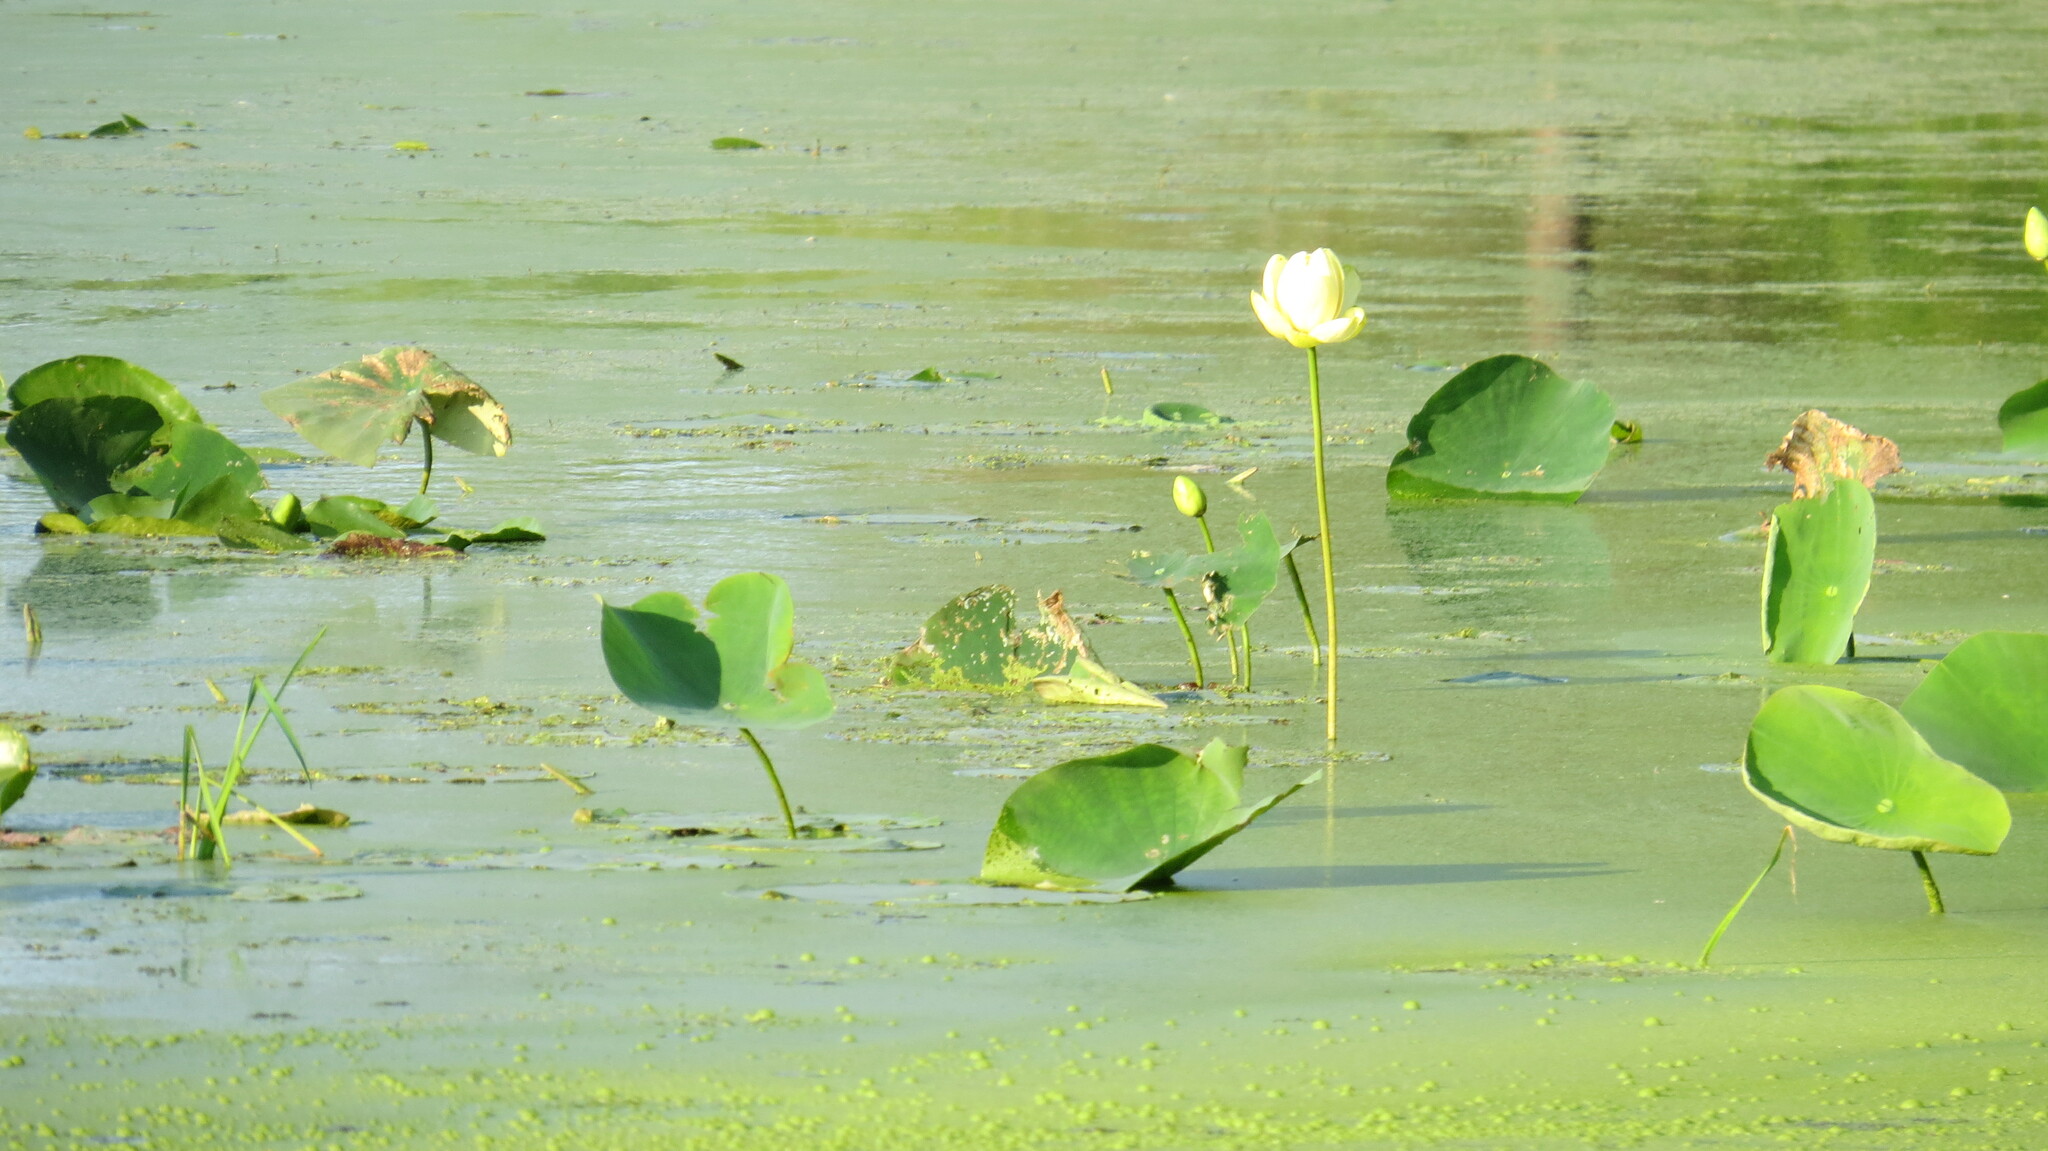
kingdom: Plantae
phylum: Tracheophyta
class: Magnoliopsida
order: Proteales
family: Nelumbonaceae
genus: Nelumbo
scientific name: Nelumbo lutea
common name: American lotus
